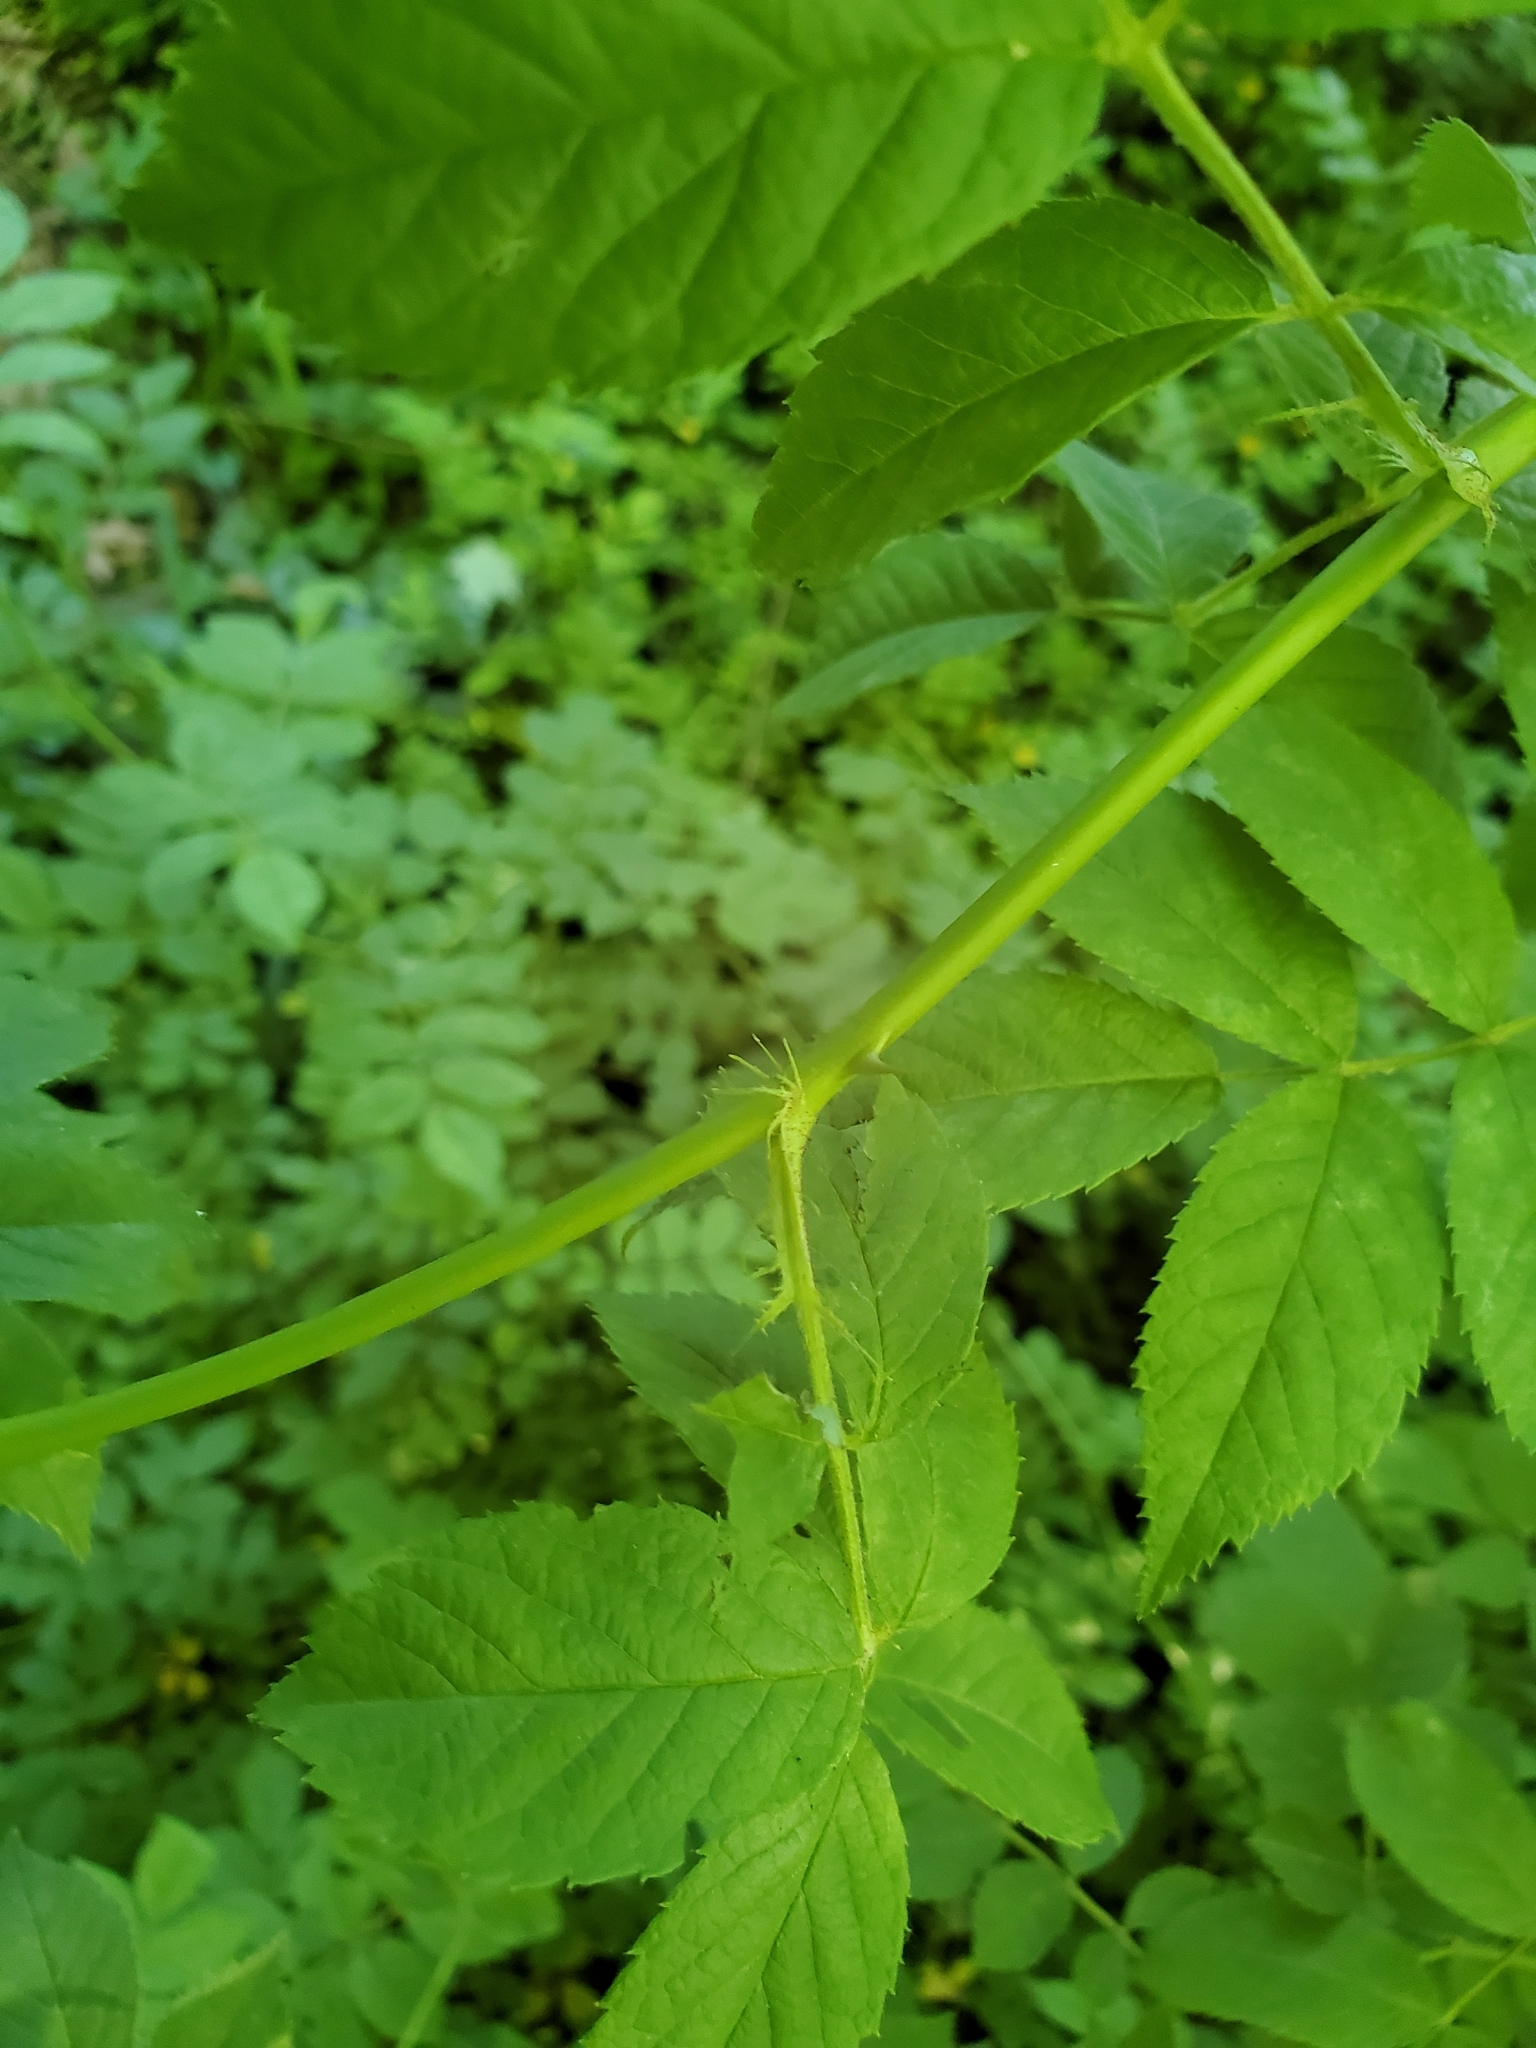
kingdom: Plantae
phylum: Tracheophyta
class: Magnoliopsida
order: Rosales
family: Rosaceae
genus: Rosa
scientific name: Rosa multiflora
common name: Multiflora rose
